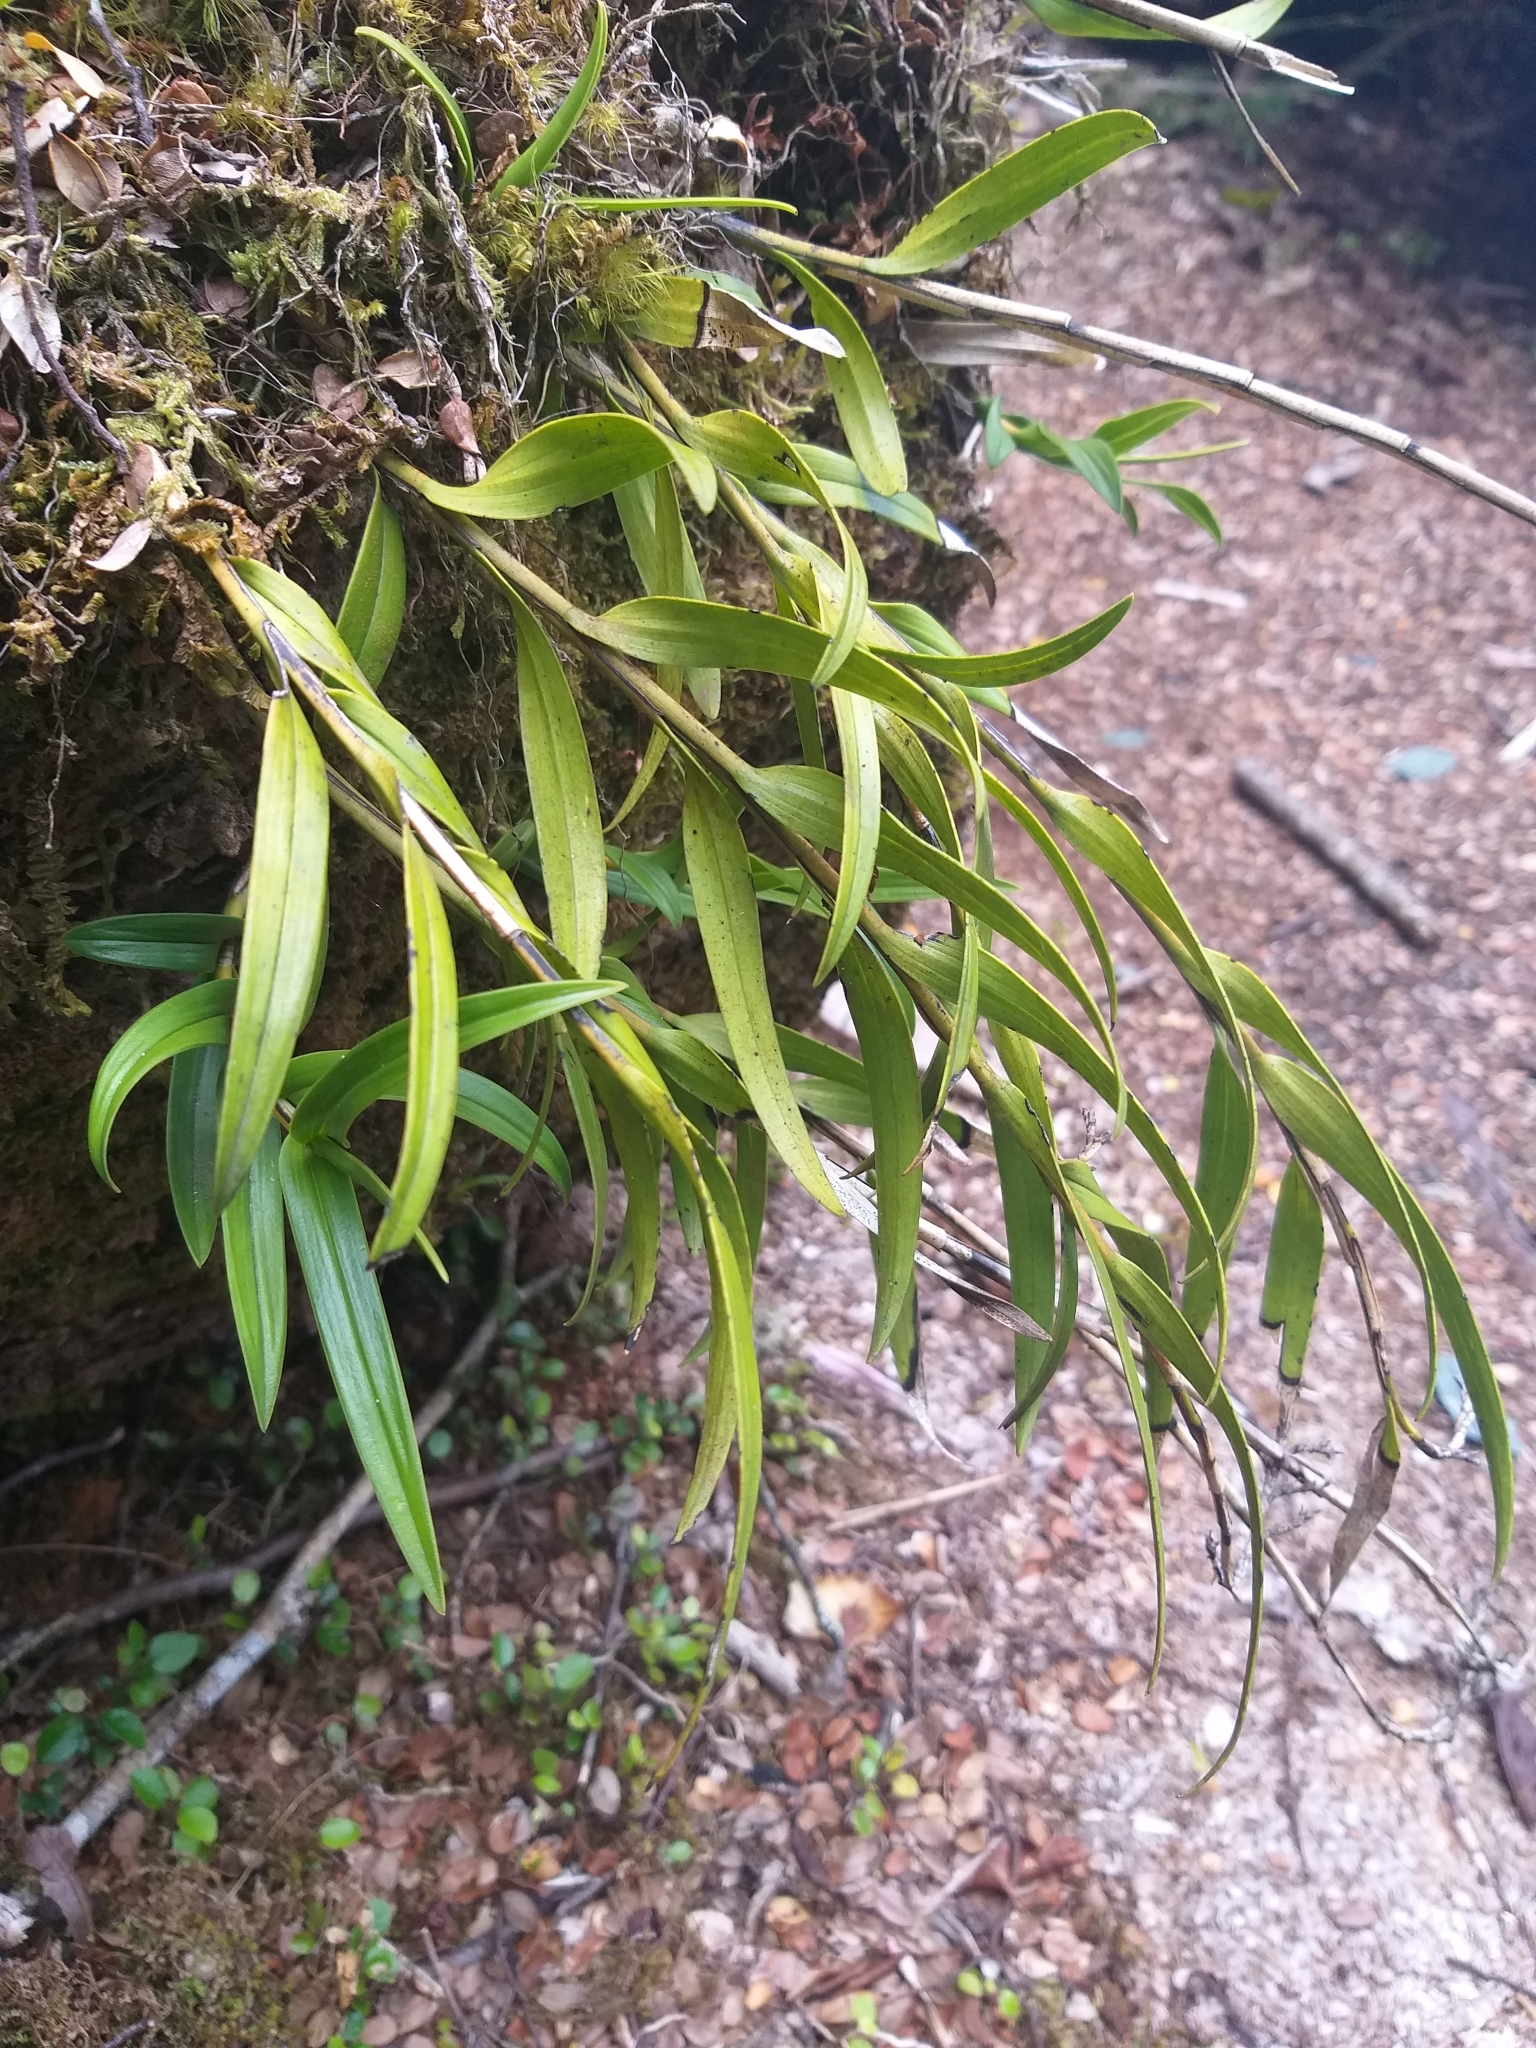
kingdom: Plantae
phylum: Tracheophyta
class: Liliopsida
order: Asparagales
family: Orchidaceae
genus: Earina
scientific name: Earina autumnalis
